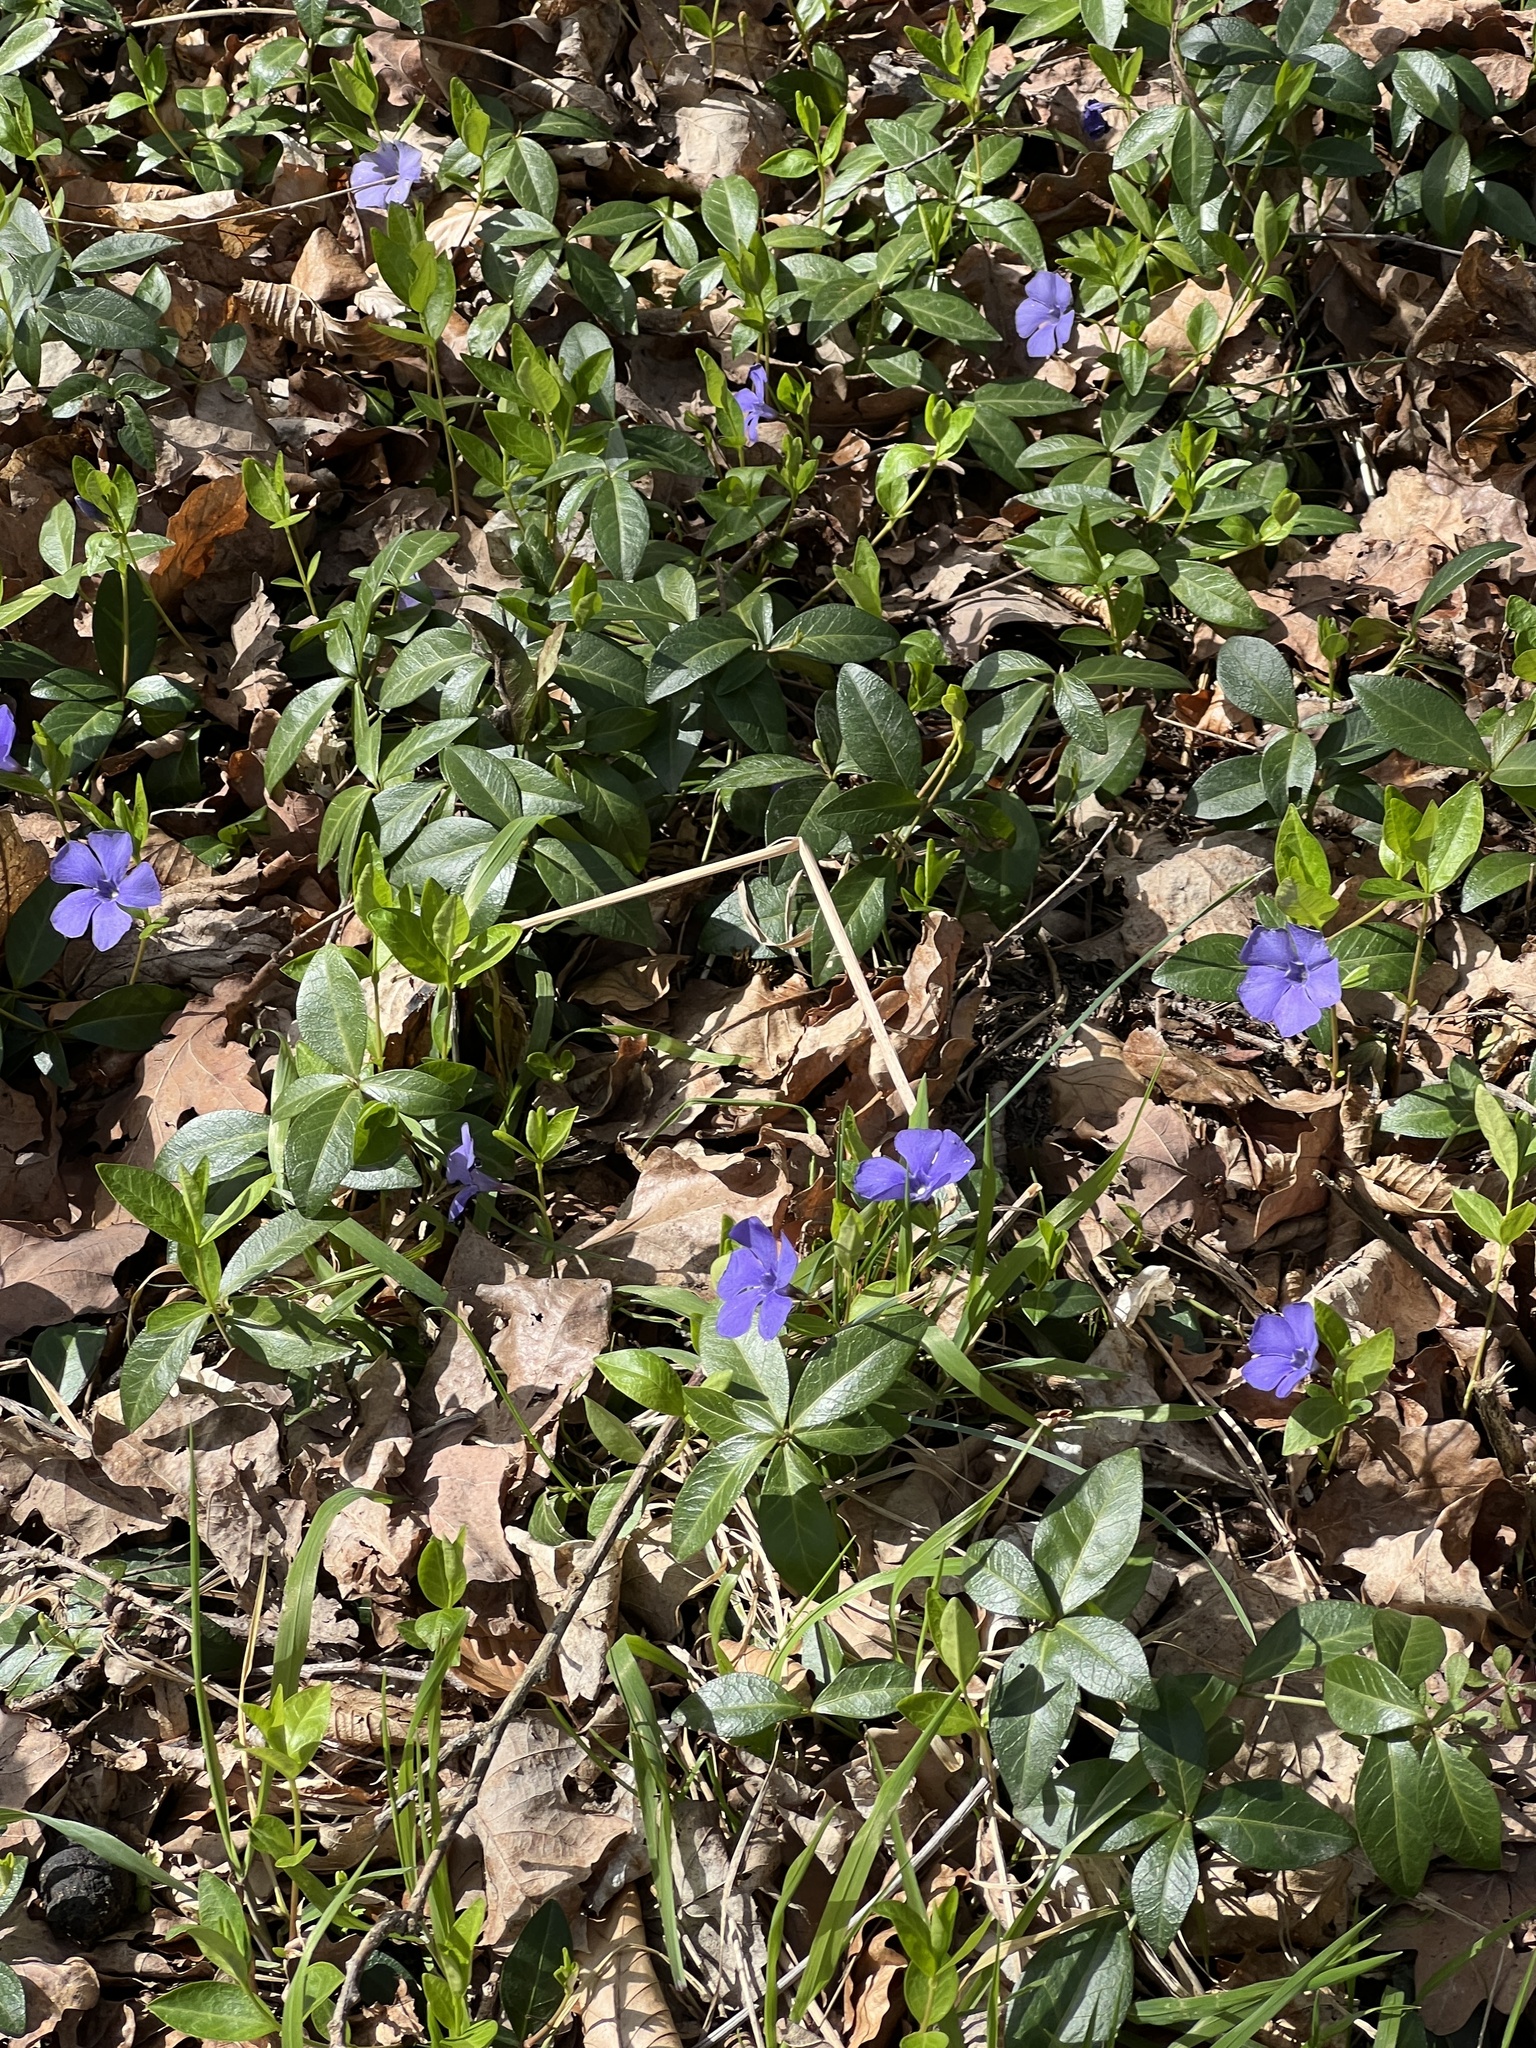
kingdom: Plantae
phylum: Tracheophyta
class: Magnoliopsida
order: Gentianales
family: Apocynaceae
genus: Vinca
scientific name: Vinca minor
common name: Lesser periwinkle
